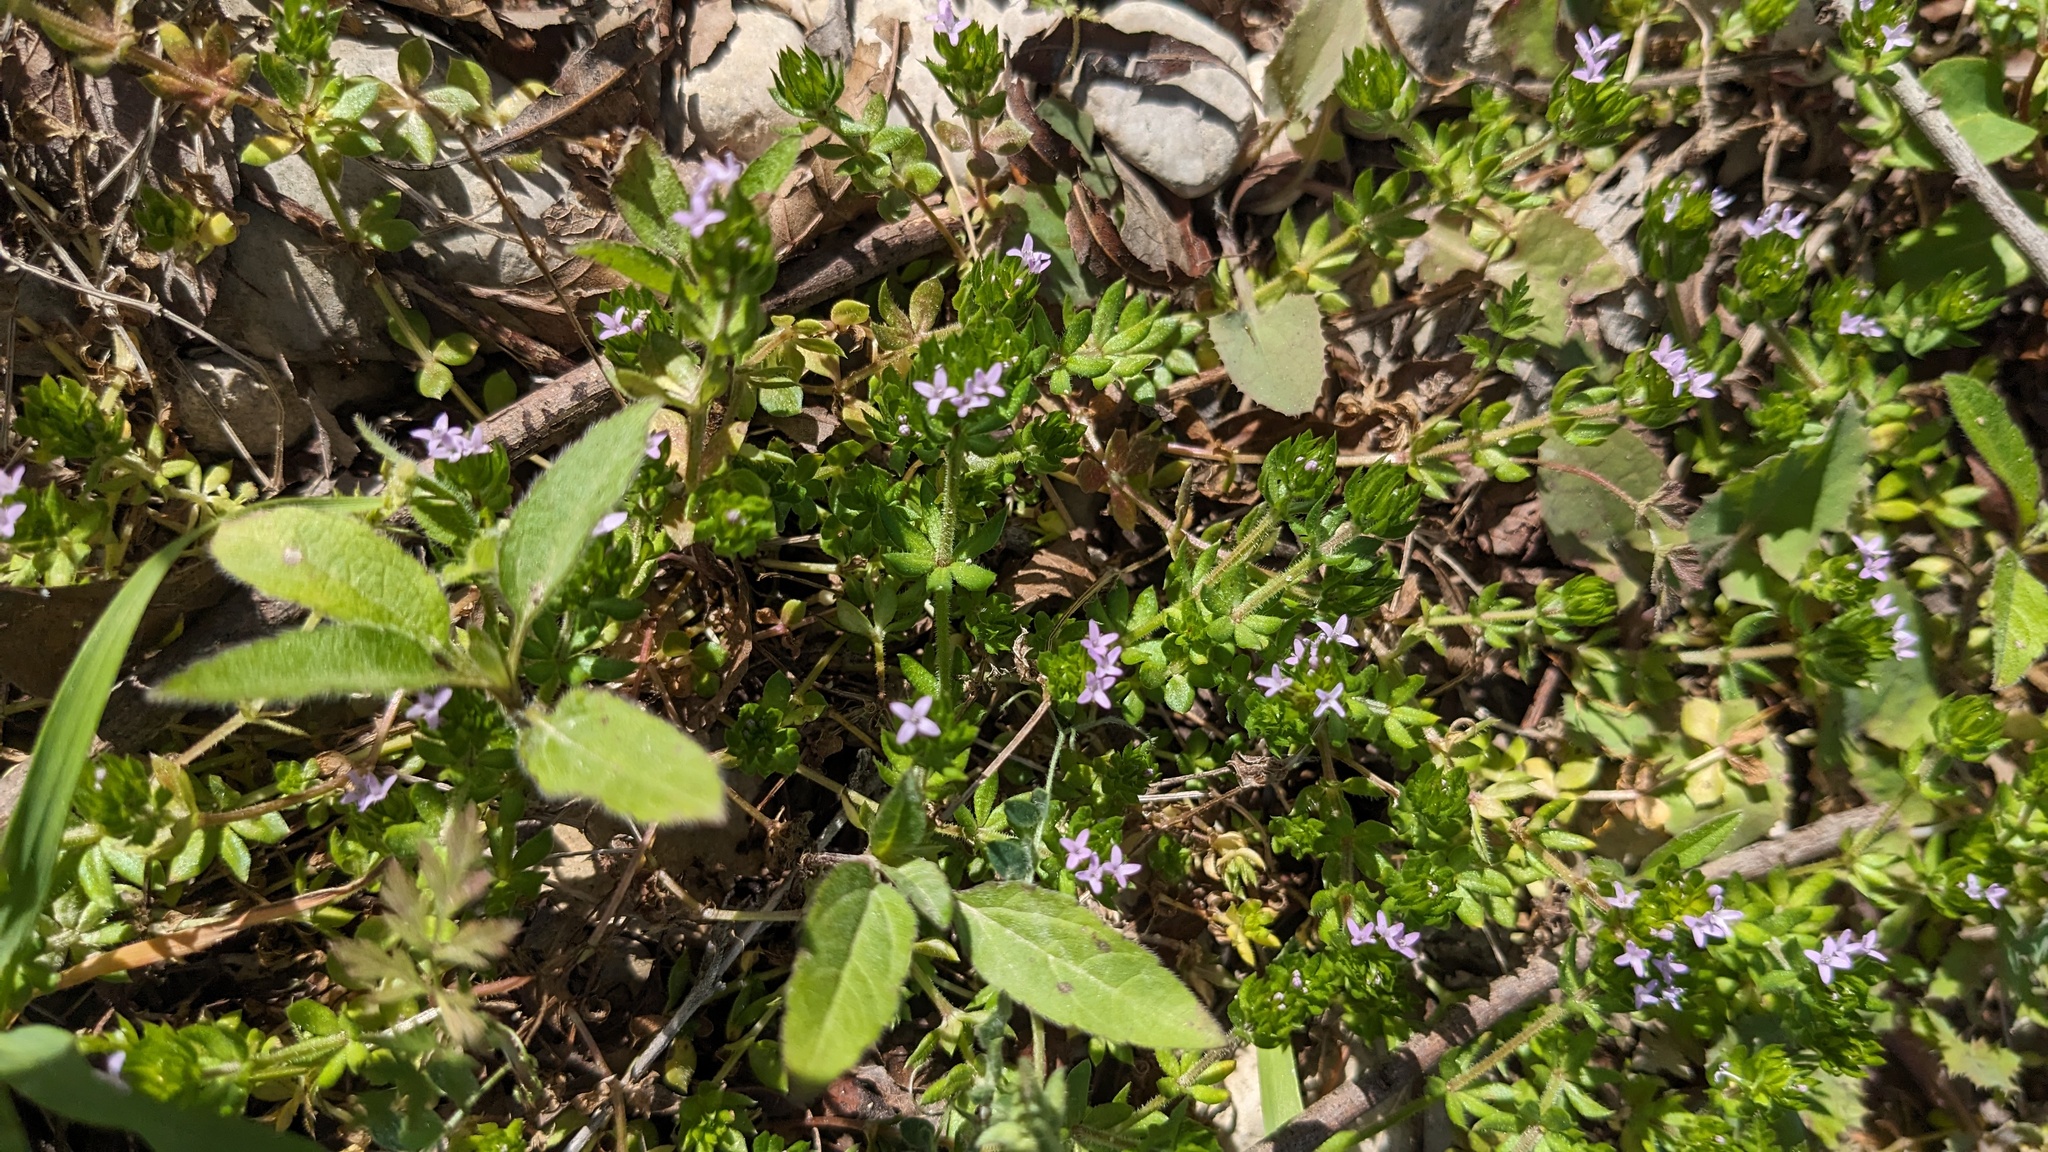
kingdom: Plantae
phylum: Tracheophyta
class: Magnoliopsida
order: Gentianales
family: Rubiaceae
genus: Sherardia
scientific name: Sherardia arvensis
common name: Field madder
